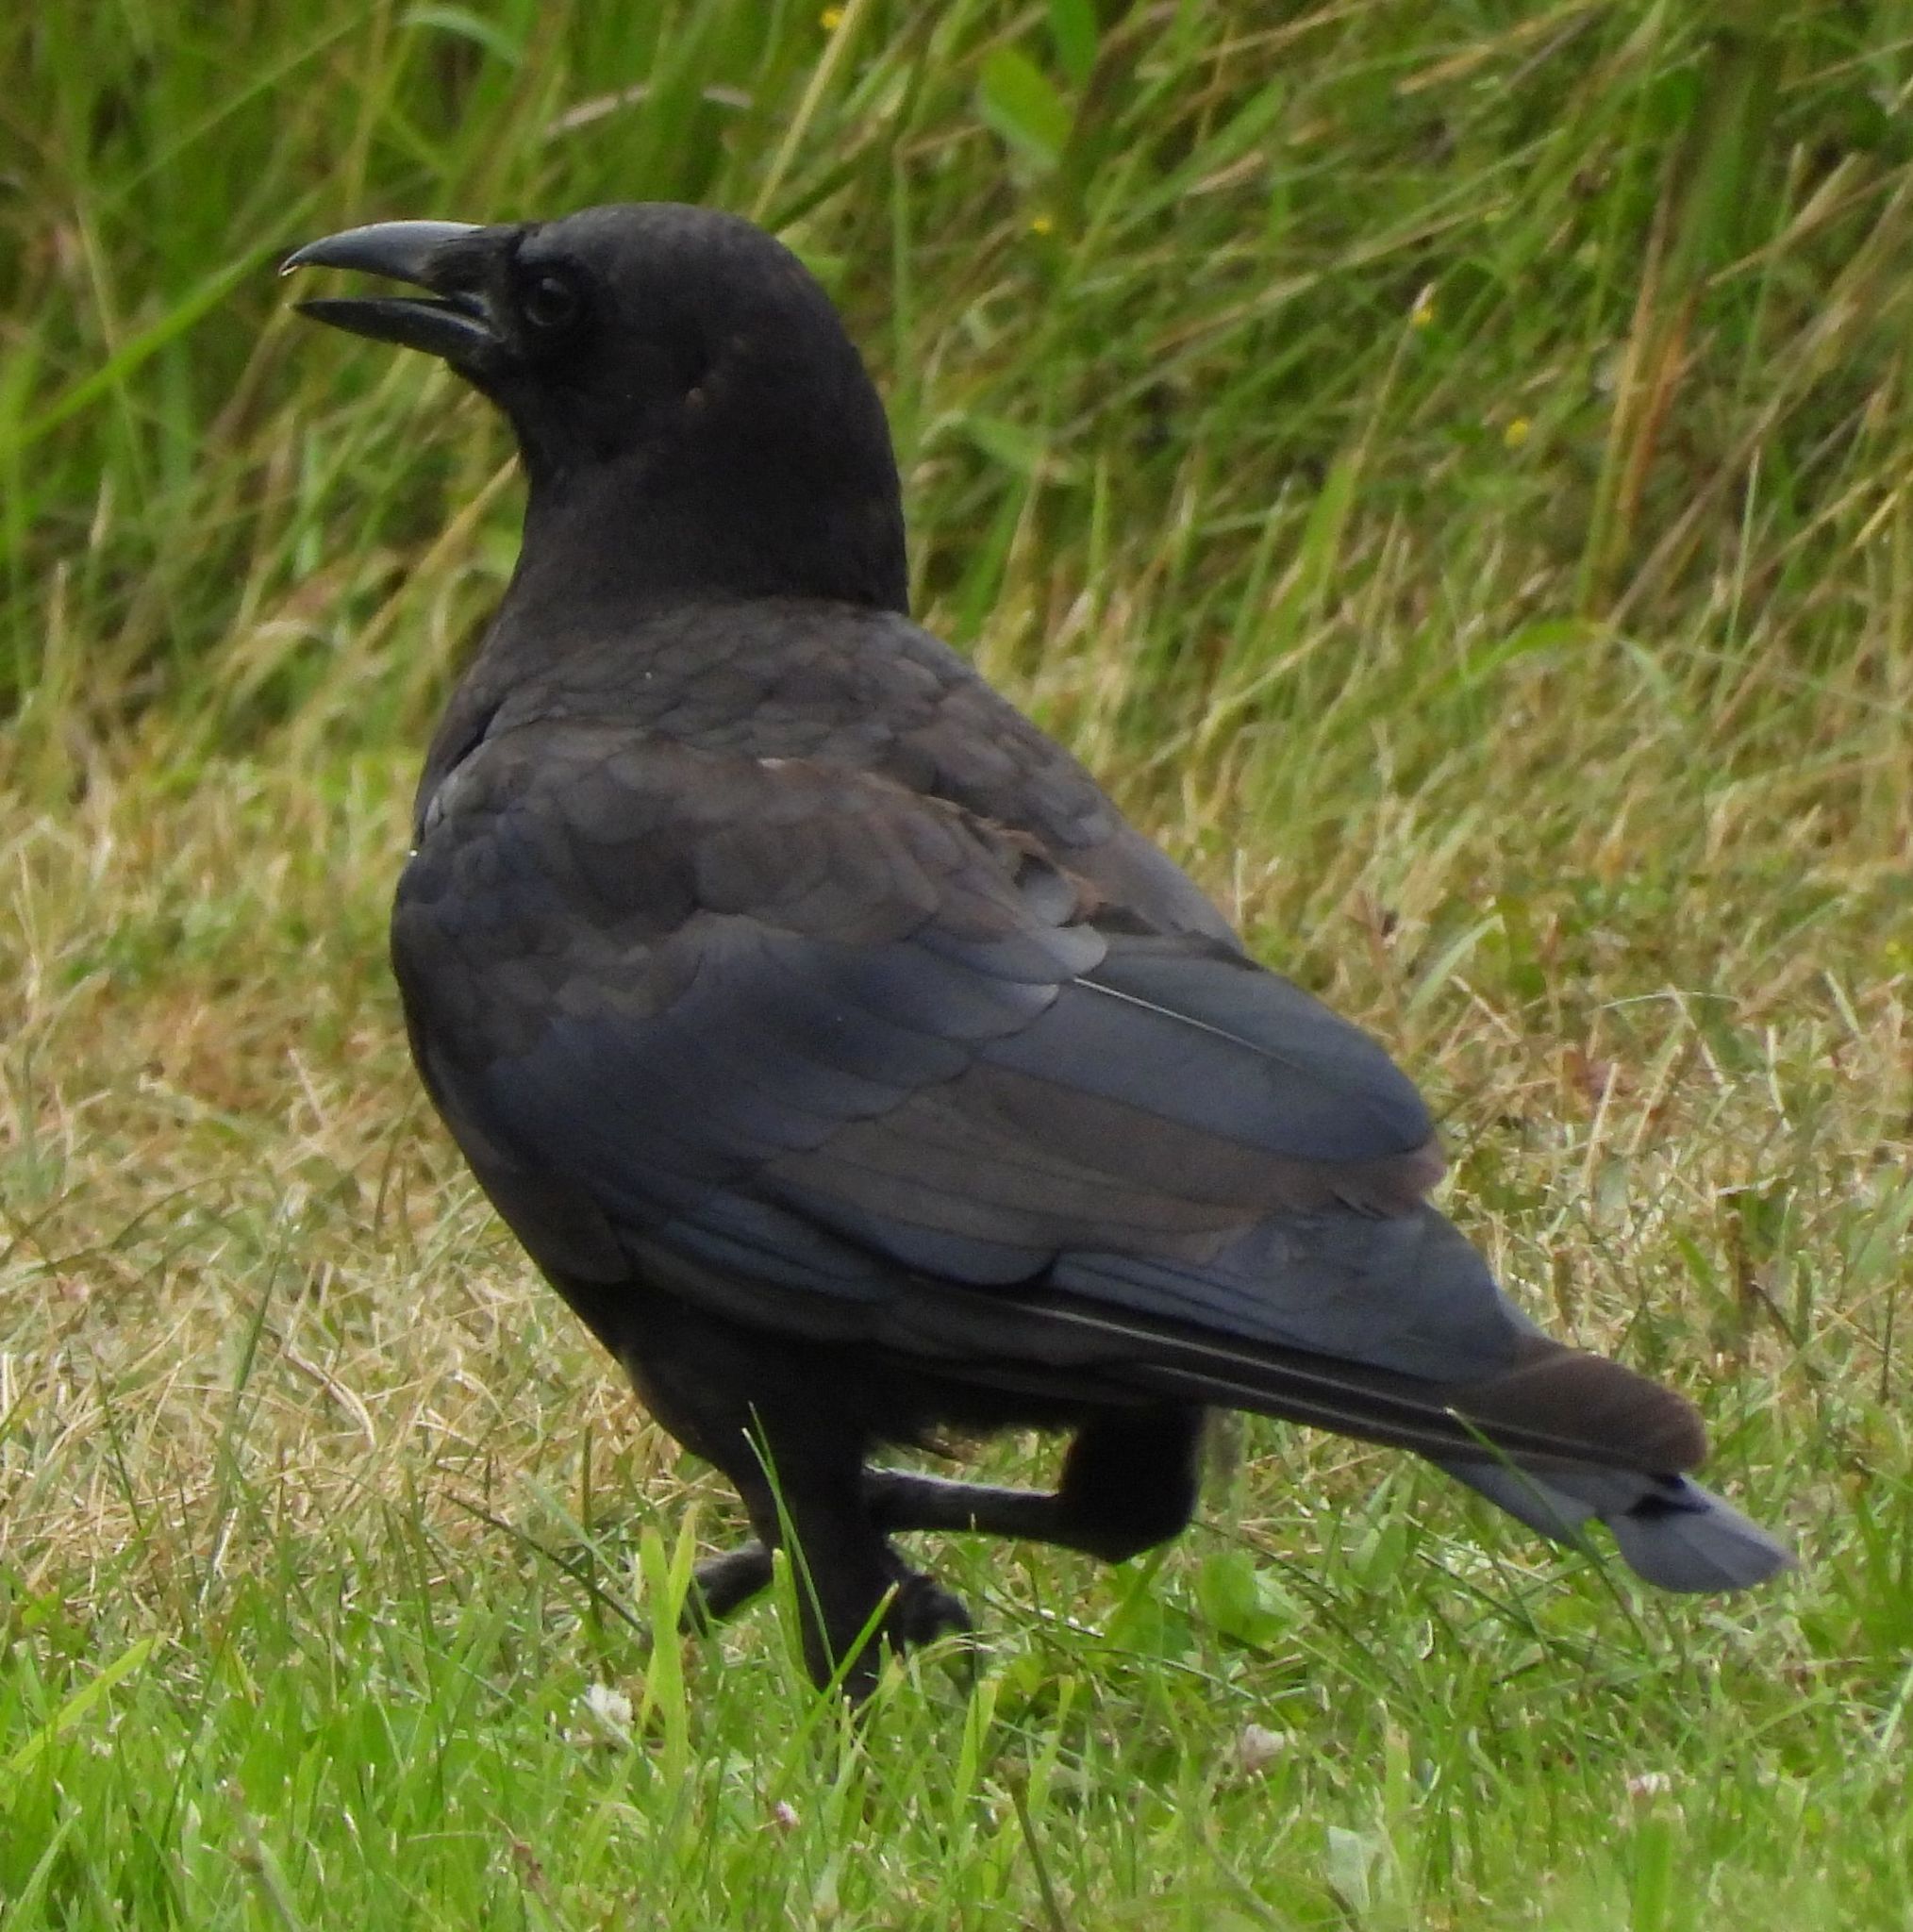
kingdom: Animalia
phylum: Chordata
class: Aves
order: Passeriformes
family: Corvidae
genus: Corvus
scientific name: Corvus brachyrhynchos
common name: American crow
